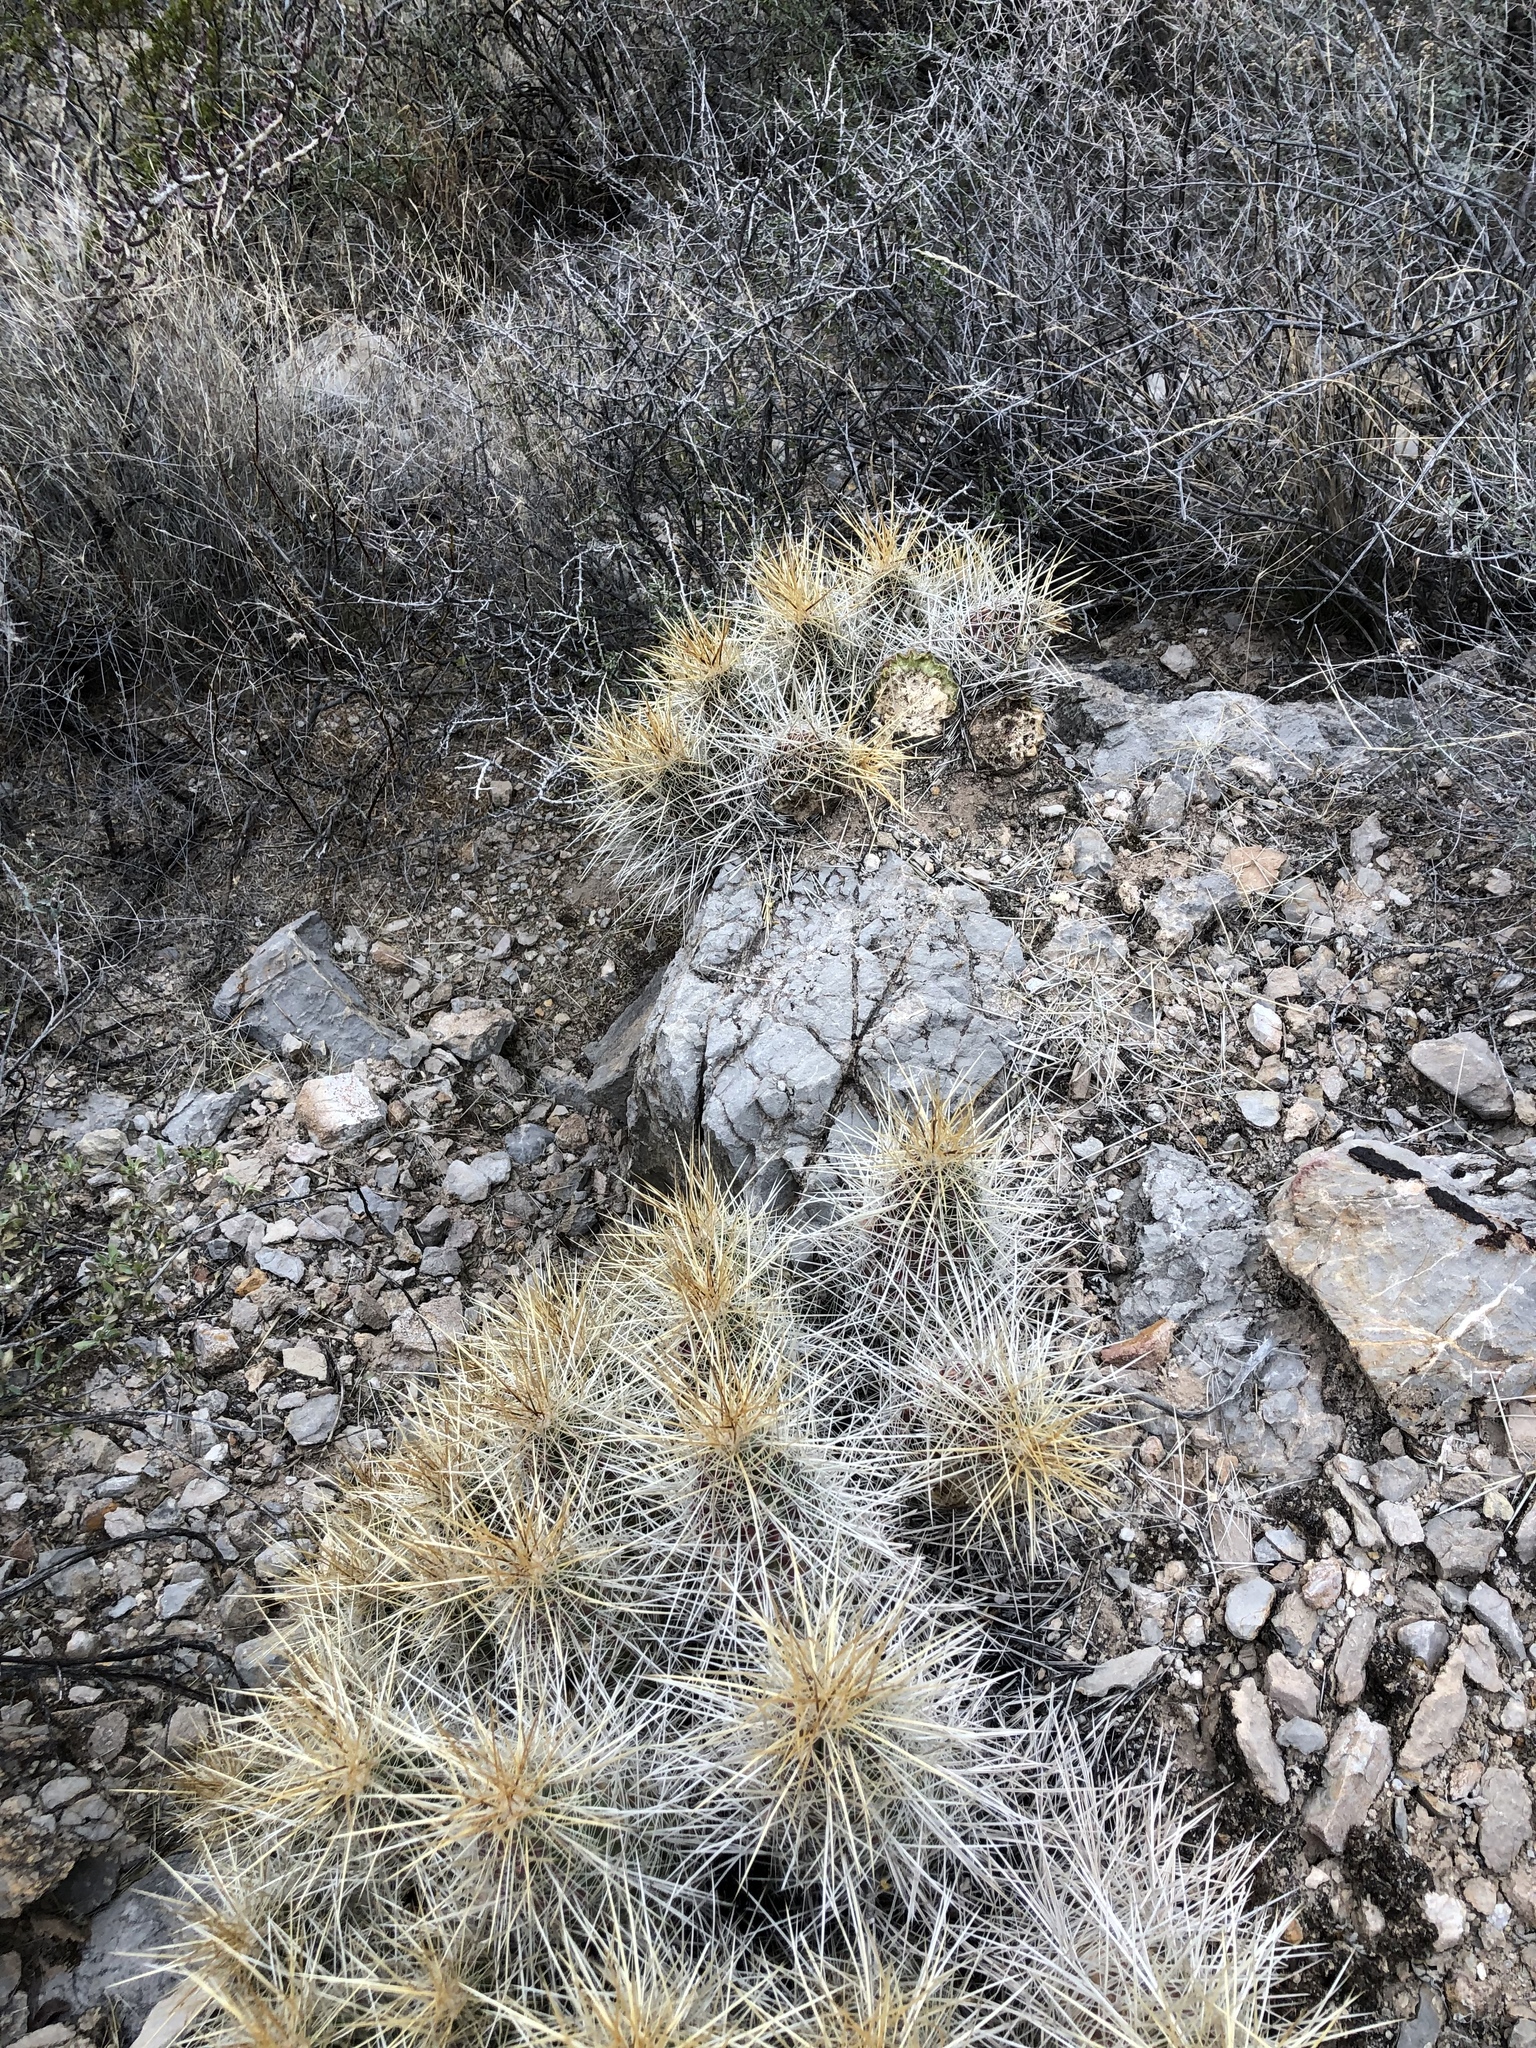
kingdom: Plantae
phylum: Tracheophyta
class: Magnoliopsida
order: Caryophyllales
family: Cactaceae
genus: Echinocereus
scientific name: Echinocereus stramineus
